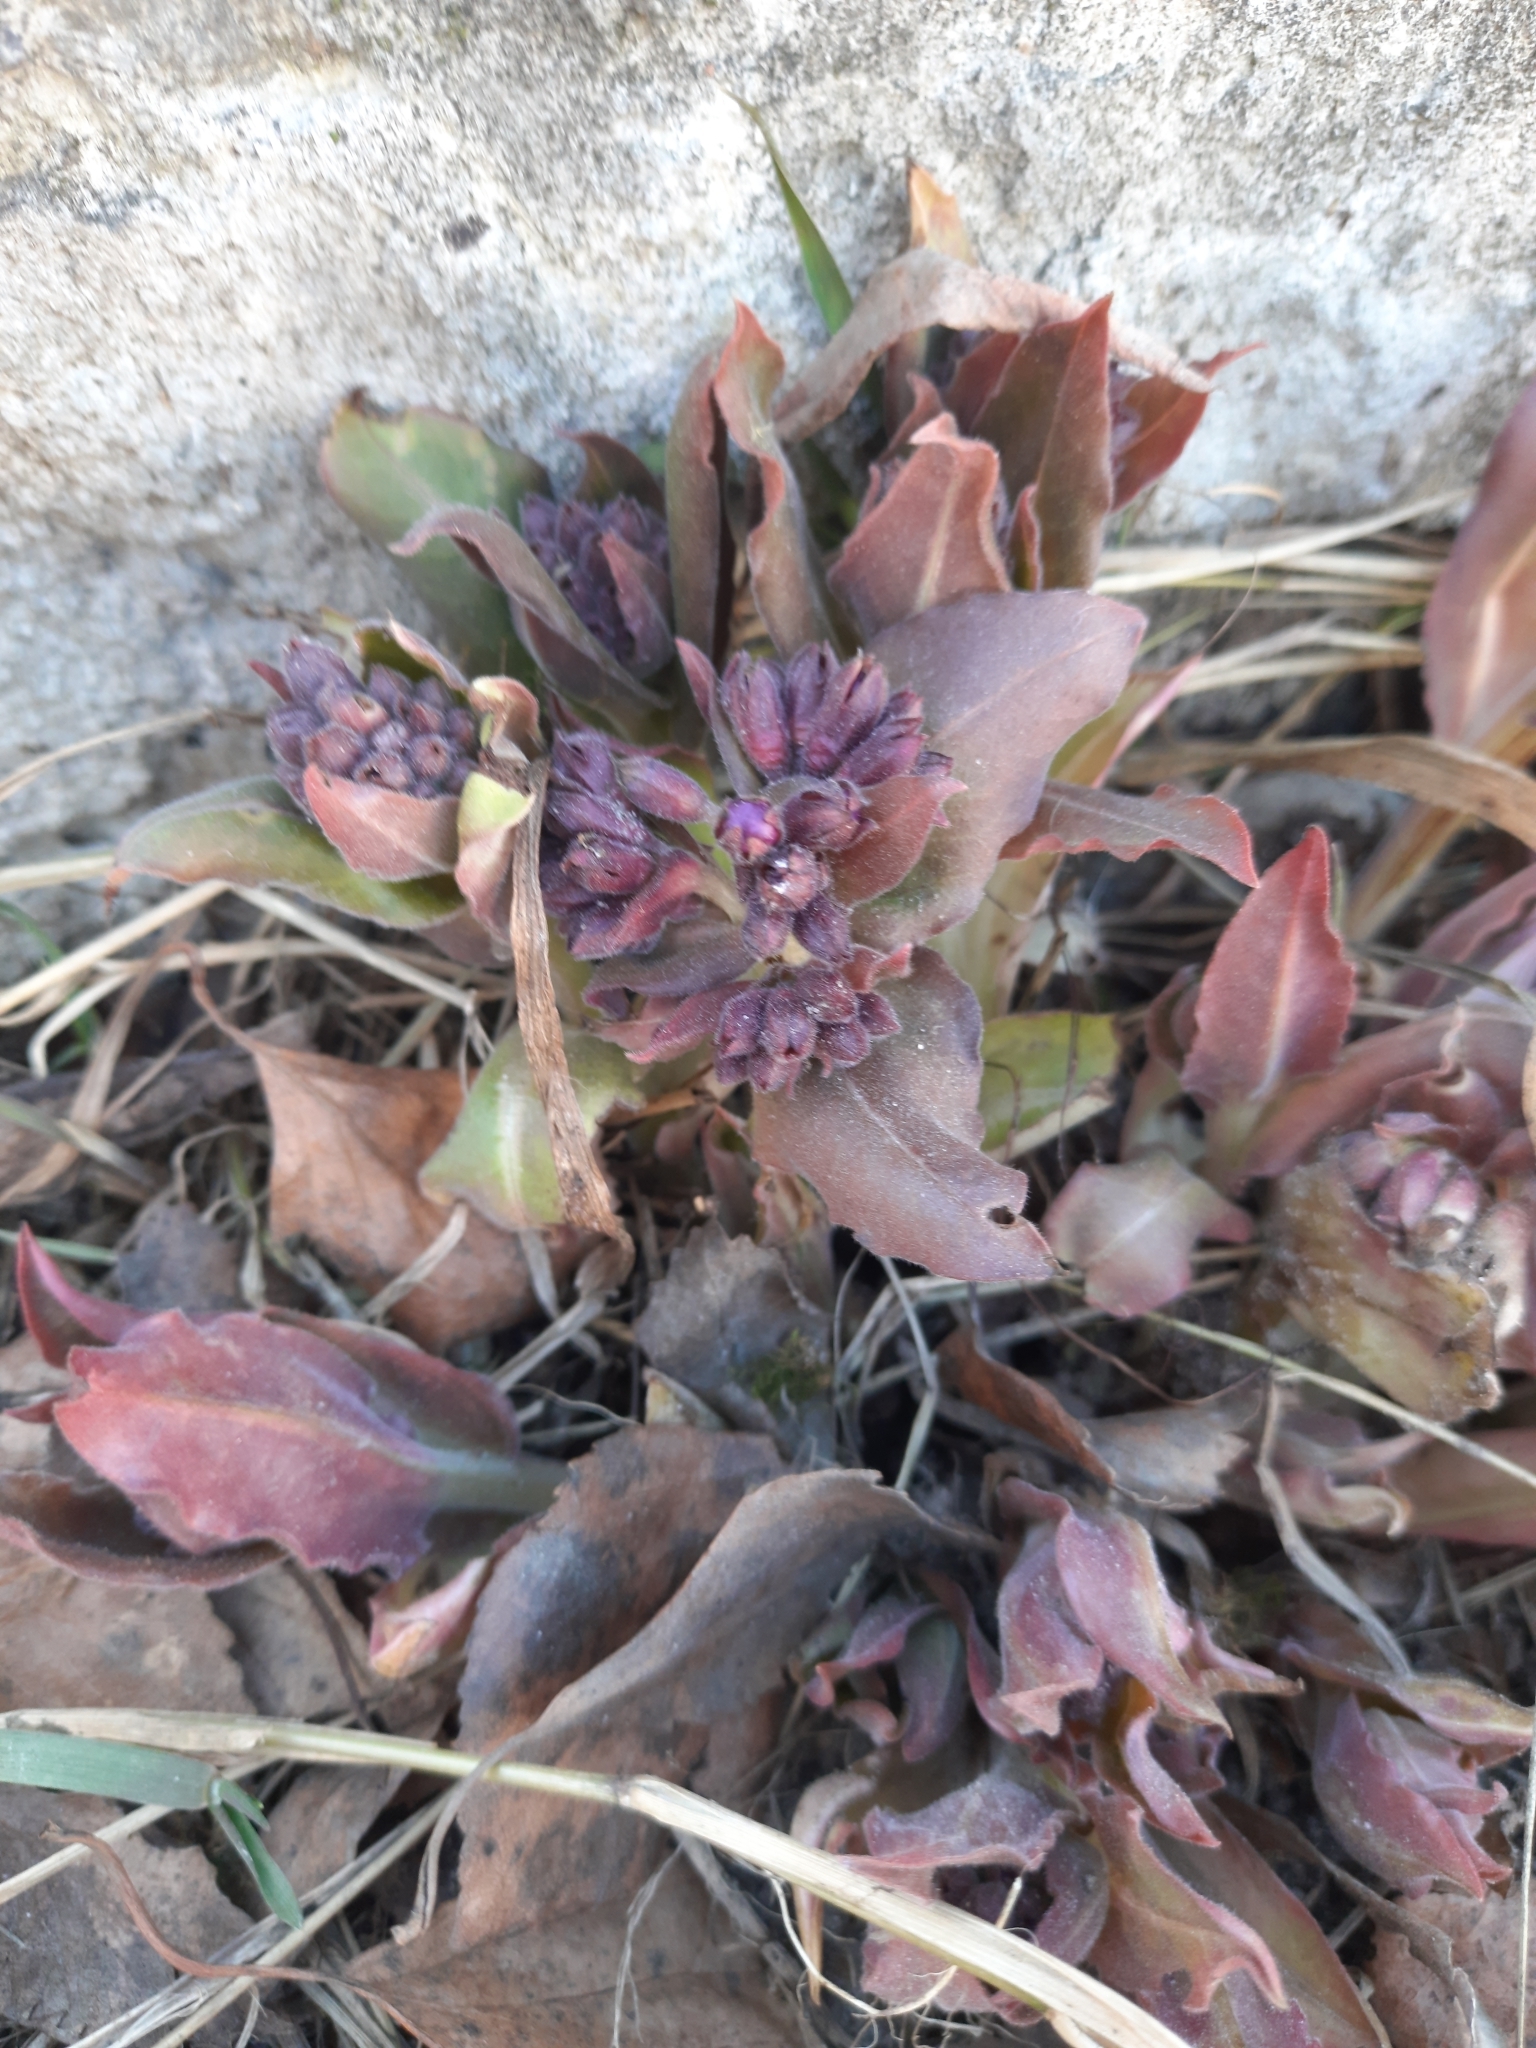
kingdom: Plantae
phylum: Tracheophyta
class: Magnoliopsida
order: Boraginales
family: Boraginaceae
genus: Pulmonaria
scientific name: Pulmonaria mollis
